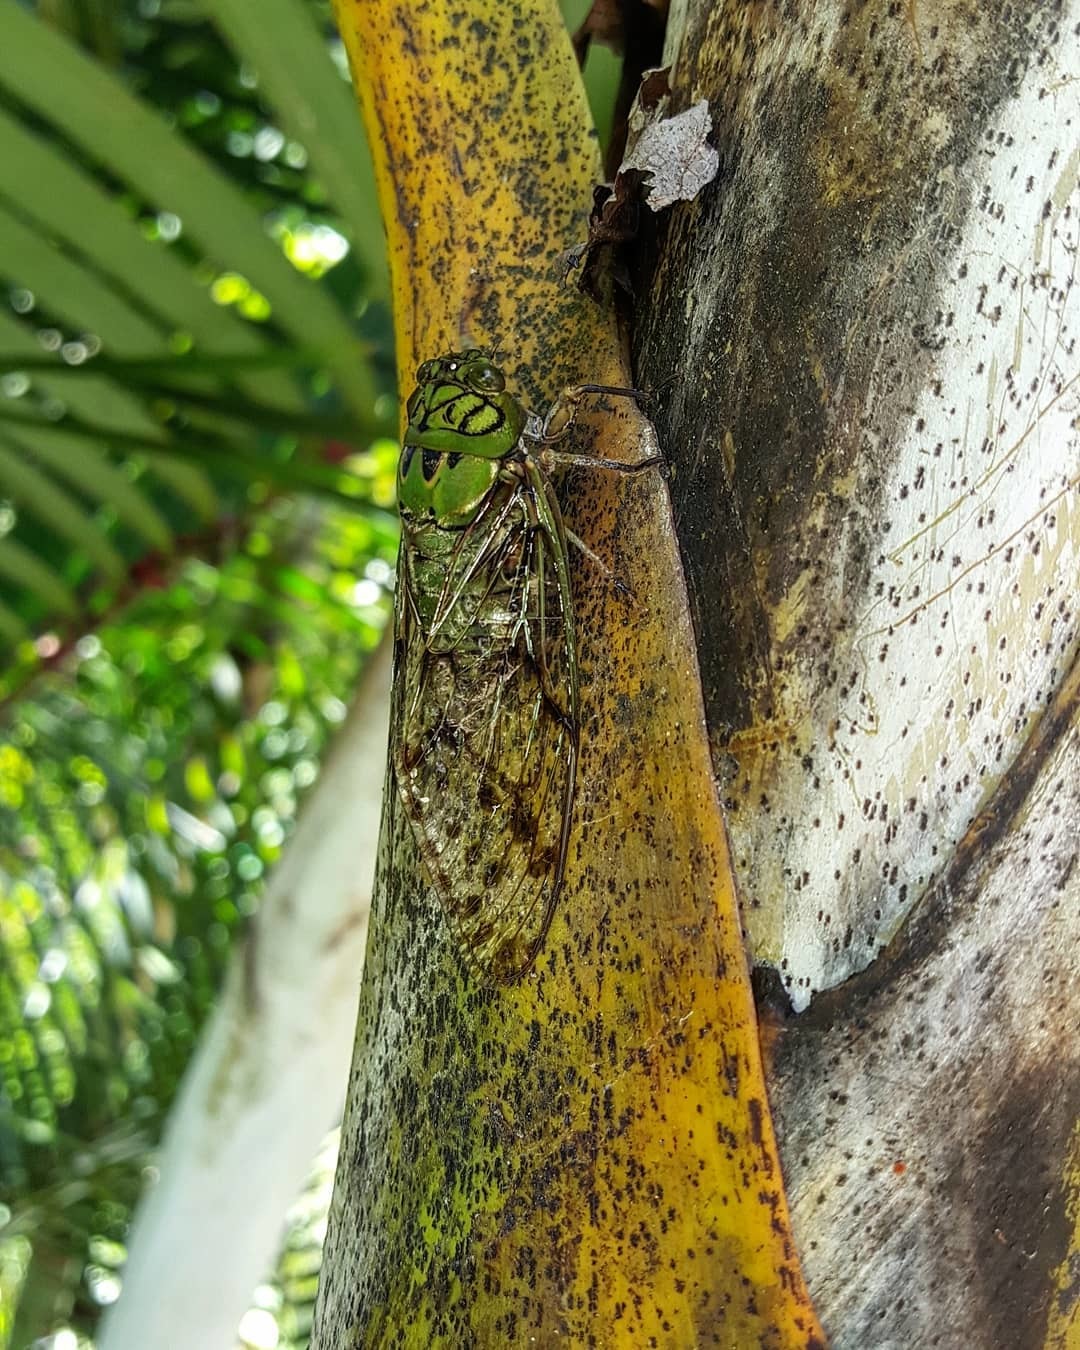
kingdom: Animalia
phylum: Arthropoda
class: Insecta
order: Hemiptera
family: Cicadidae
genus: Miranha
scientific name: Miranha imbellis
